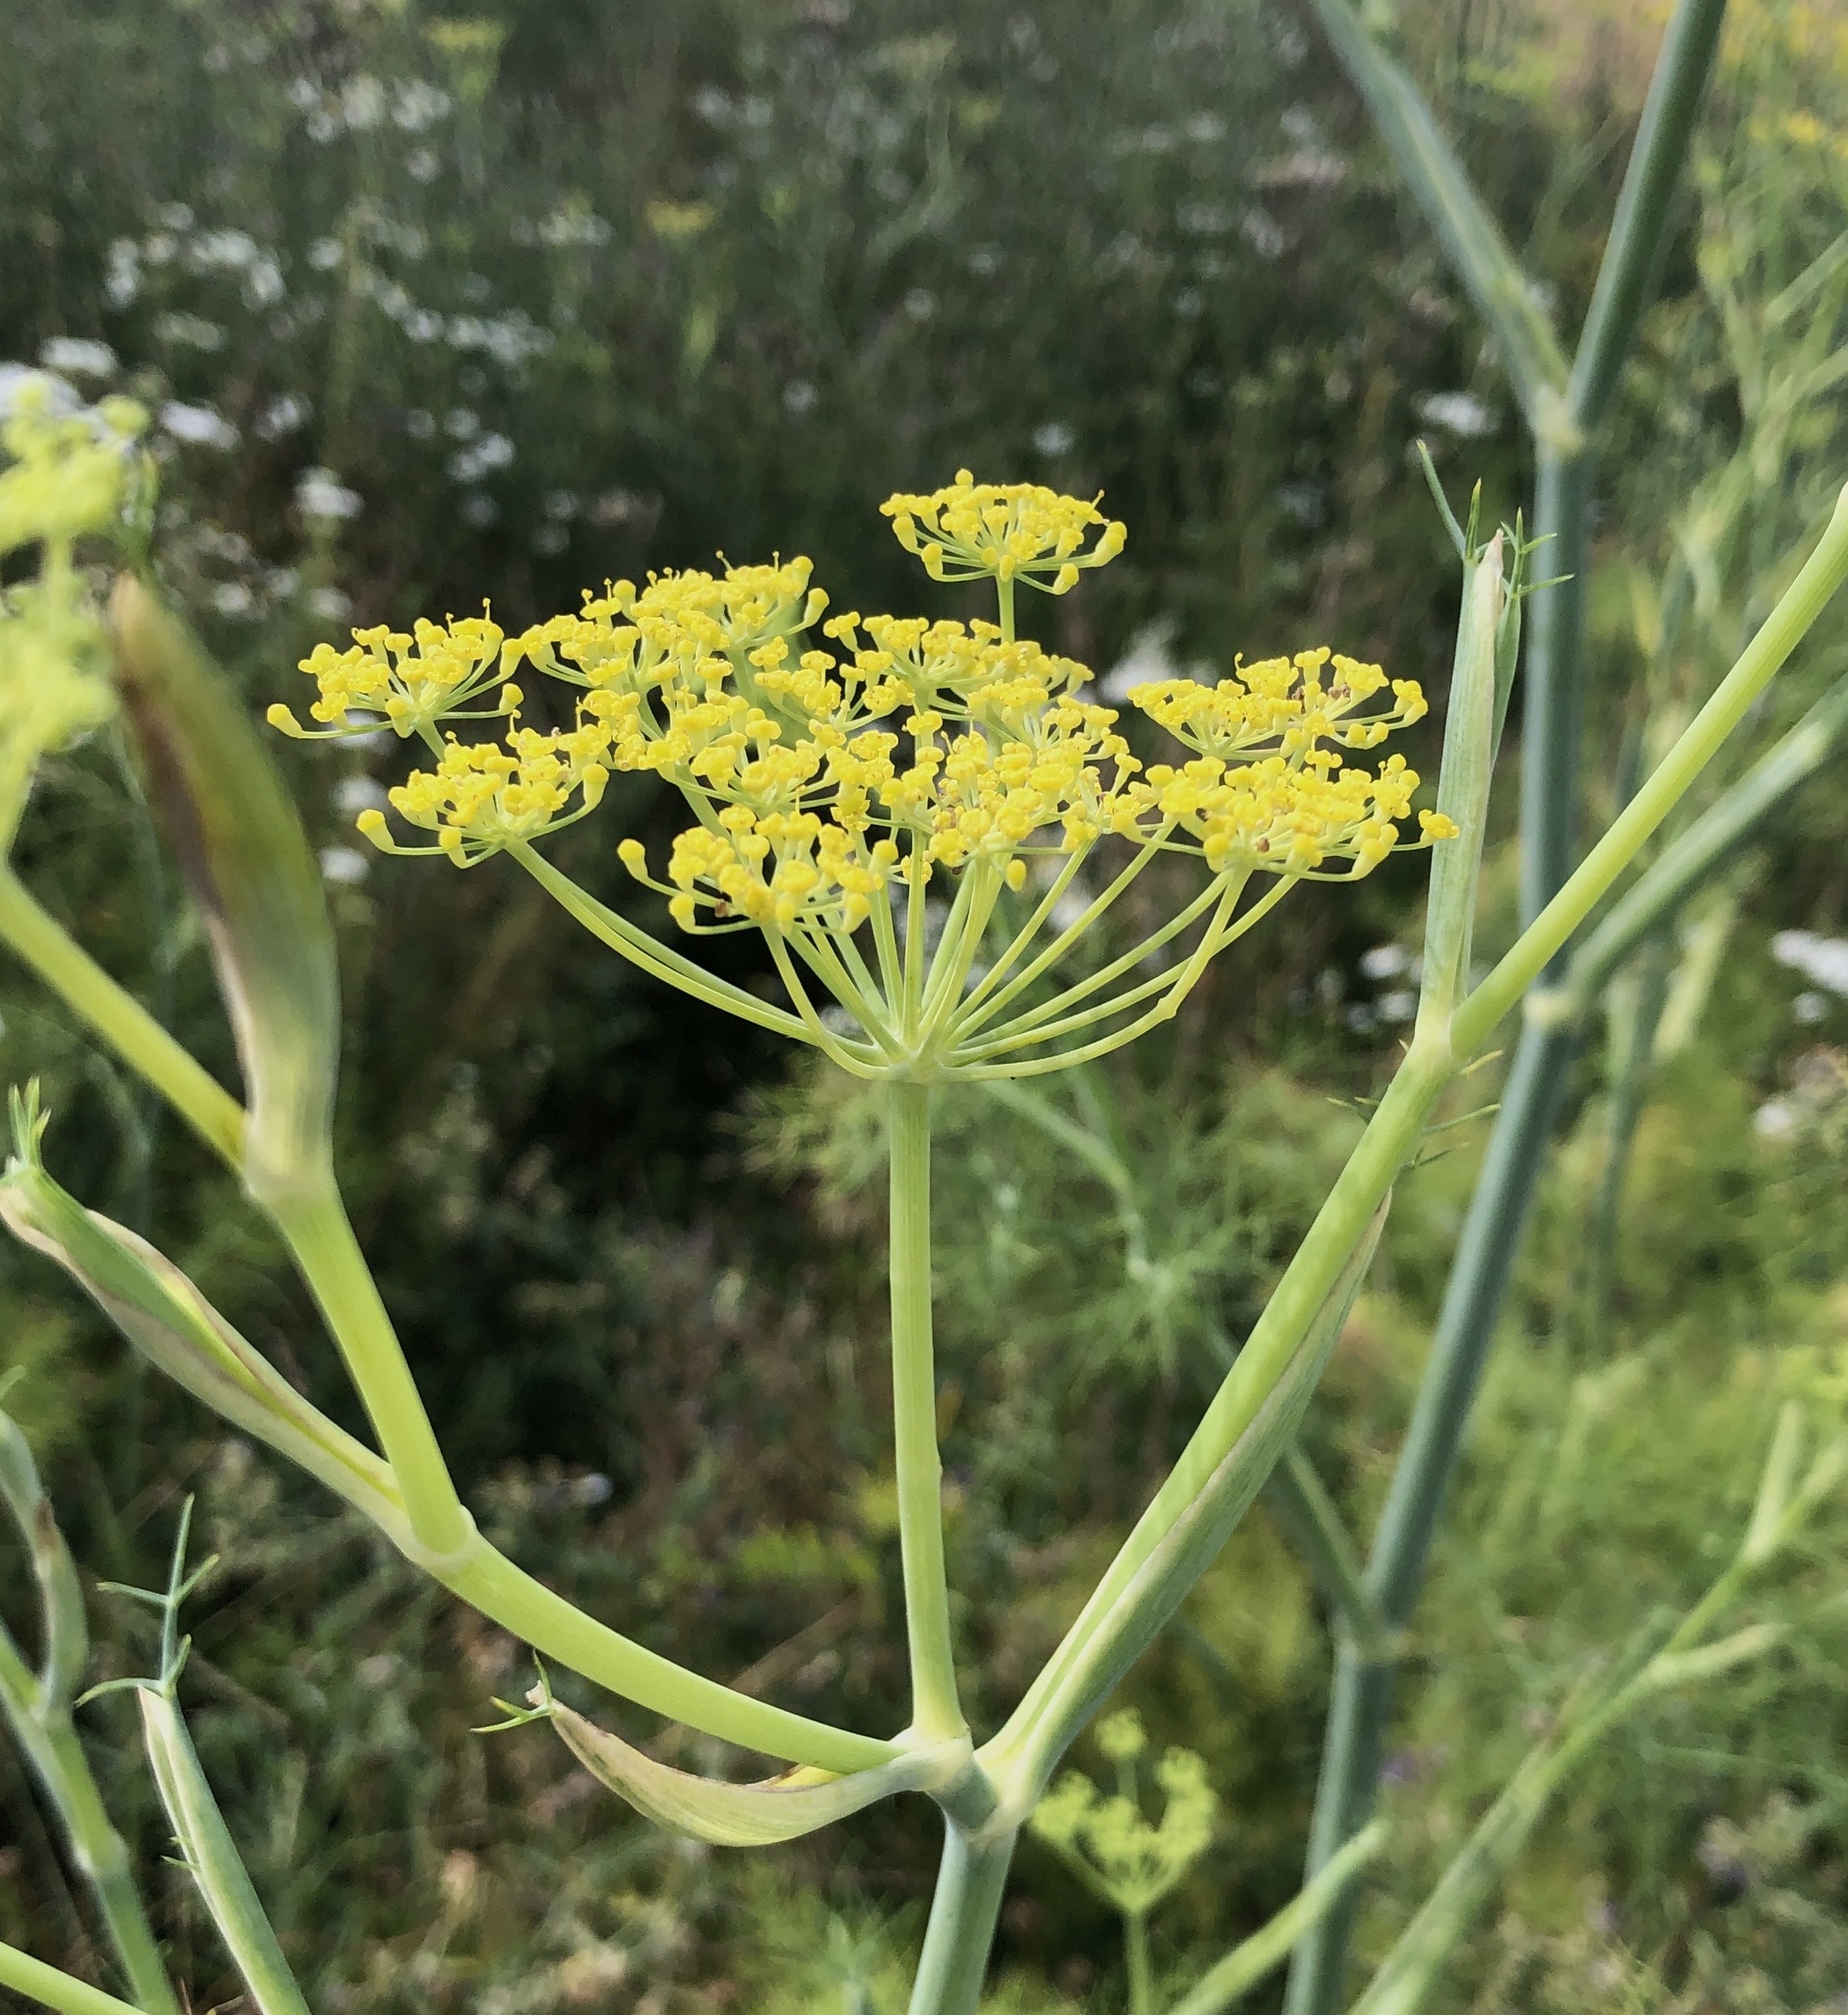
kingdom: Plantae
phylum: Tracheophyta
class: Magnoliopsida
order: Apiales
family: Apiaceae
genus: Foeniculum
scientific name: Foeniculum vulgare
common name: Fennel
